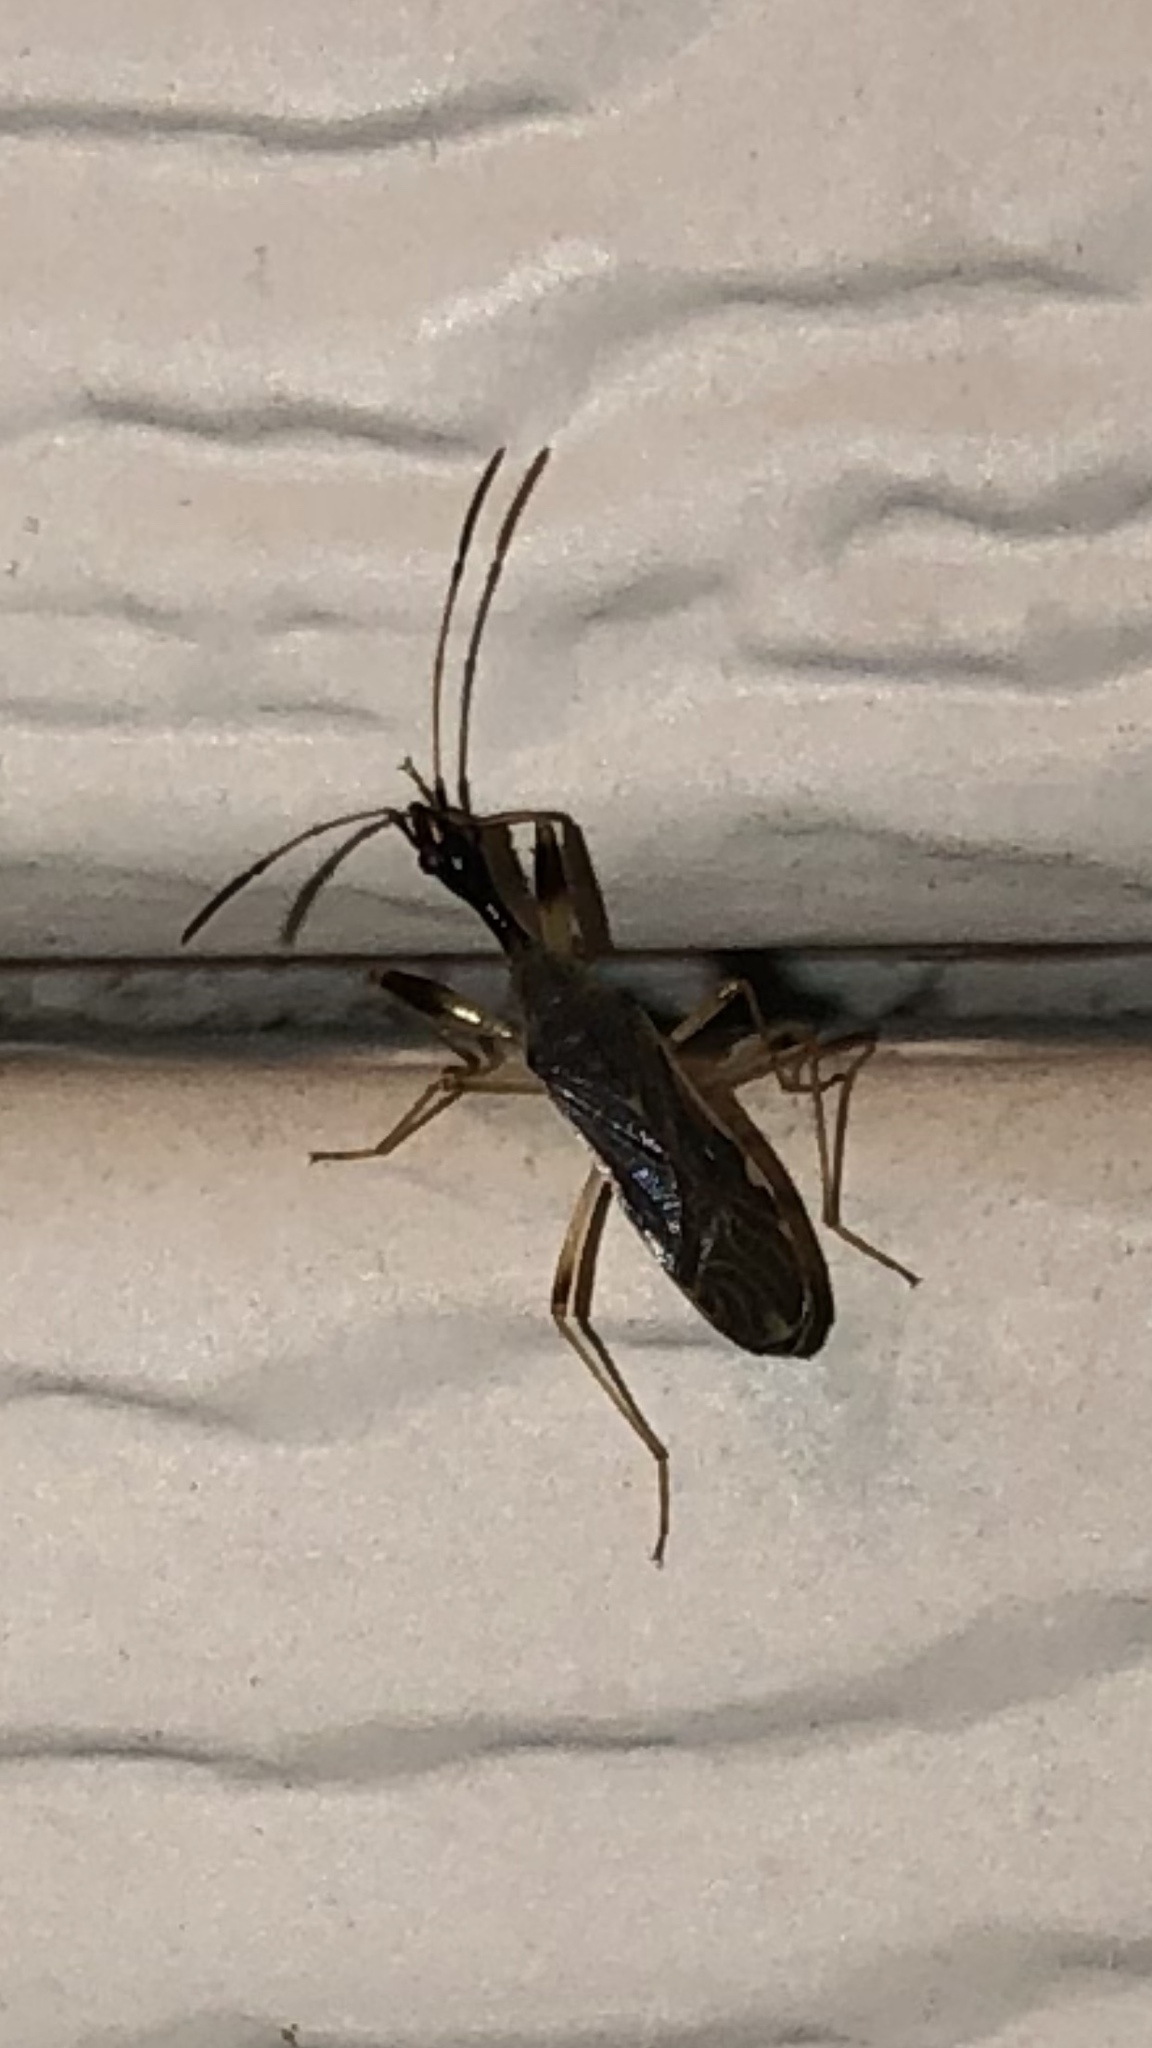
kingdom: Animalia
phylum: Arthropoda
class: Insecta
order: Hemiptera
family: Rhyparochromidae
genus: Myodocha
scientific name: Myodocha serripes
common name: Long-necked seed bug
